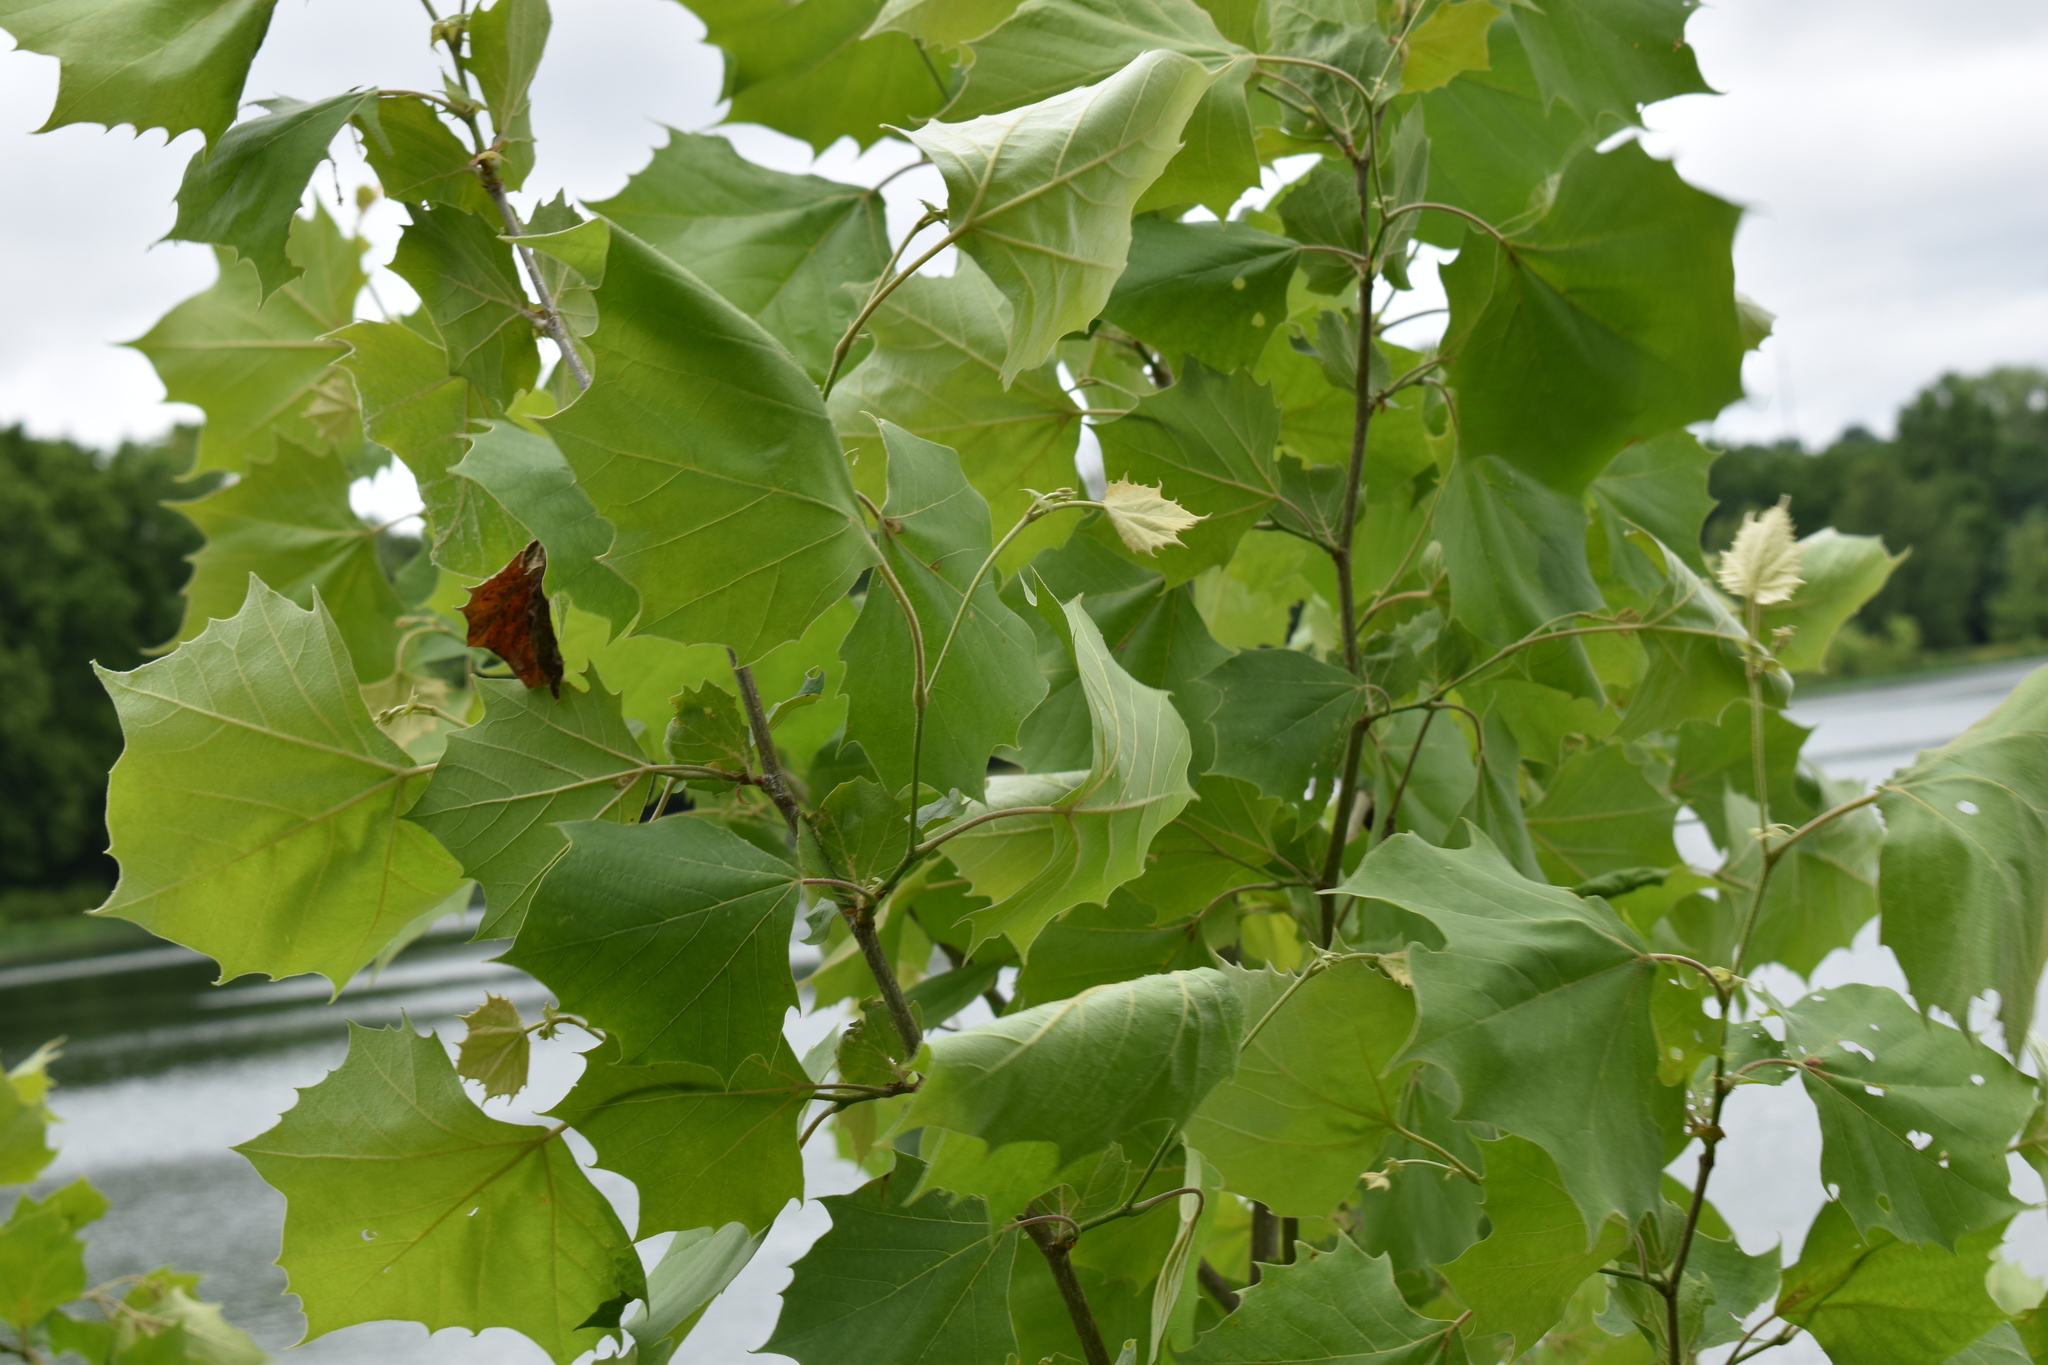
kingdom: Plantae
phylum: Tracheophyta
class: Magnoliopsida
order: Proteales
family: Platanaceae
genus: Platanus
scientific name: Platanus occidentalis
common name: American sycamore
